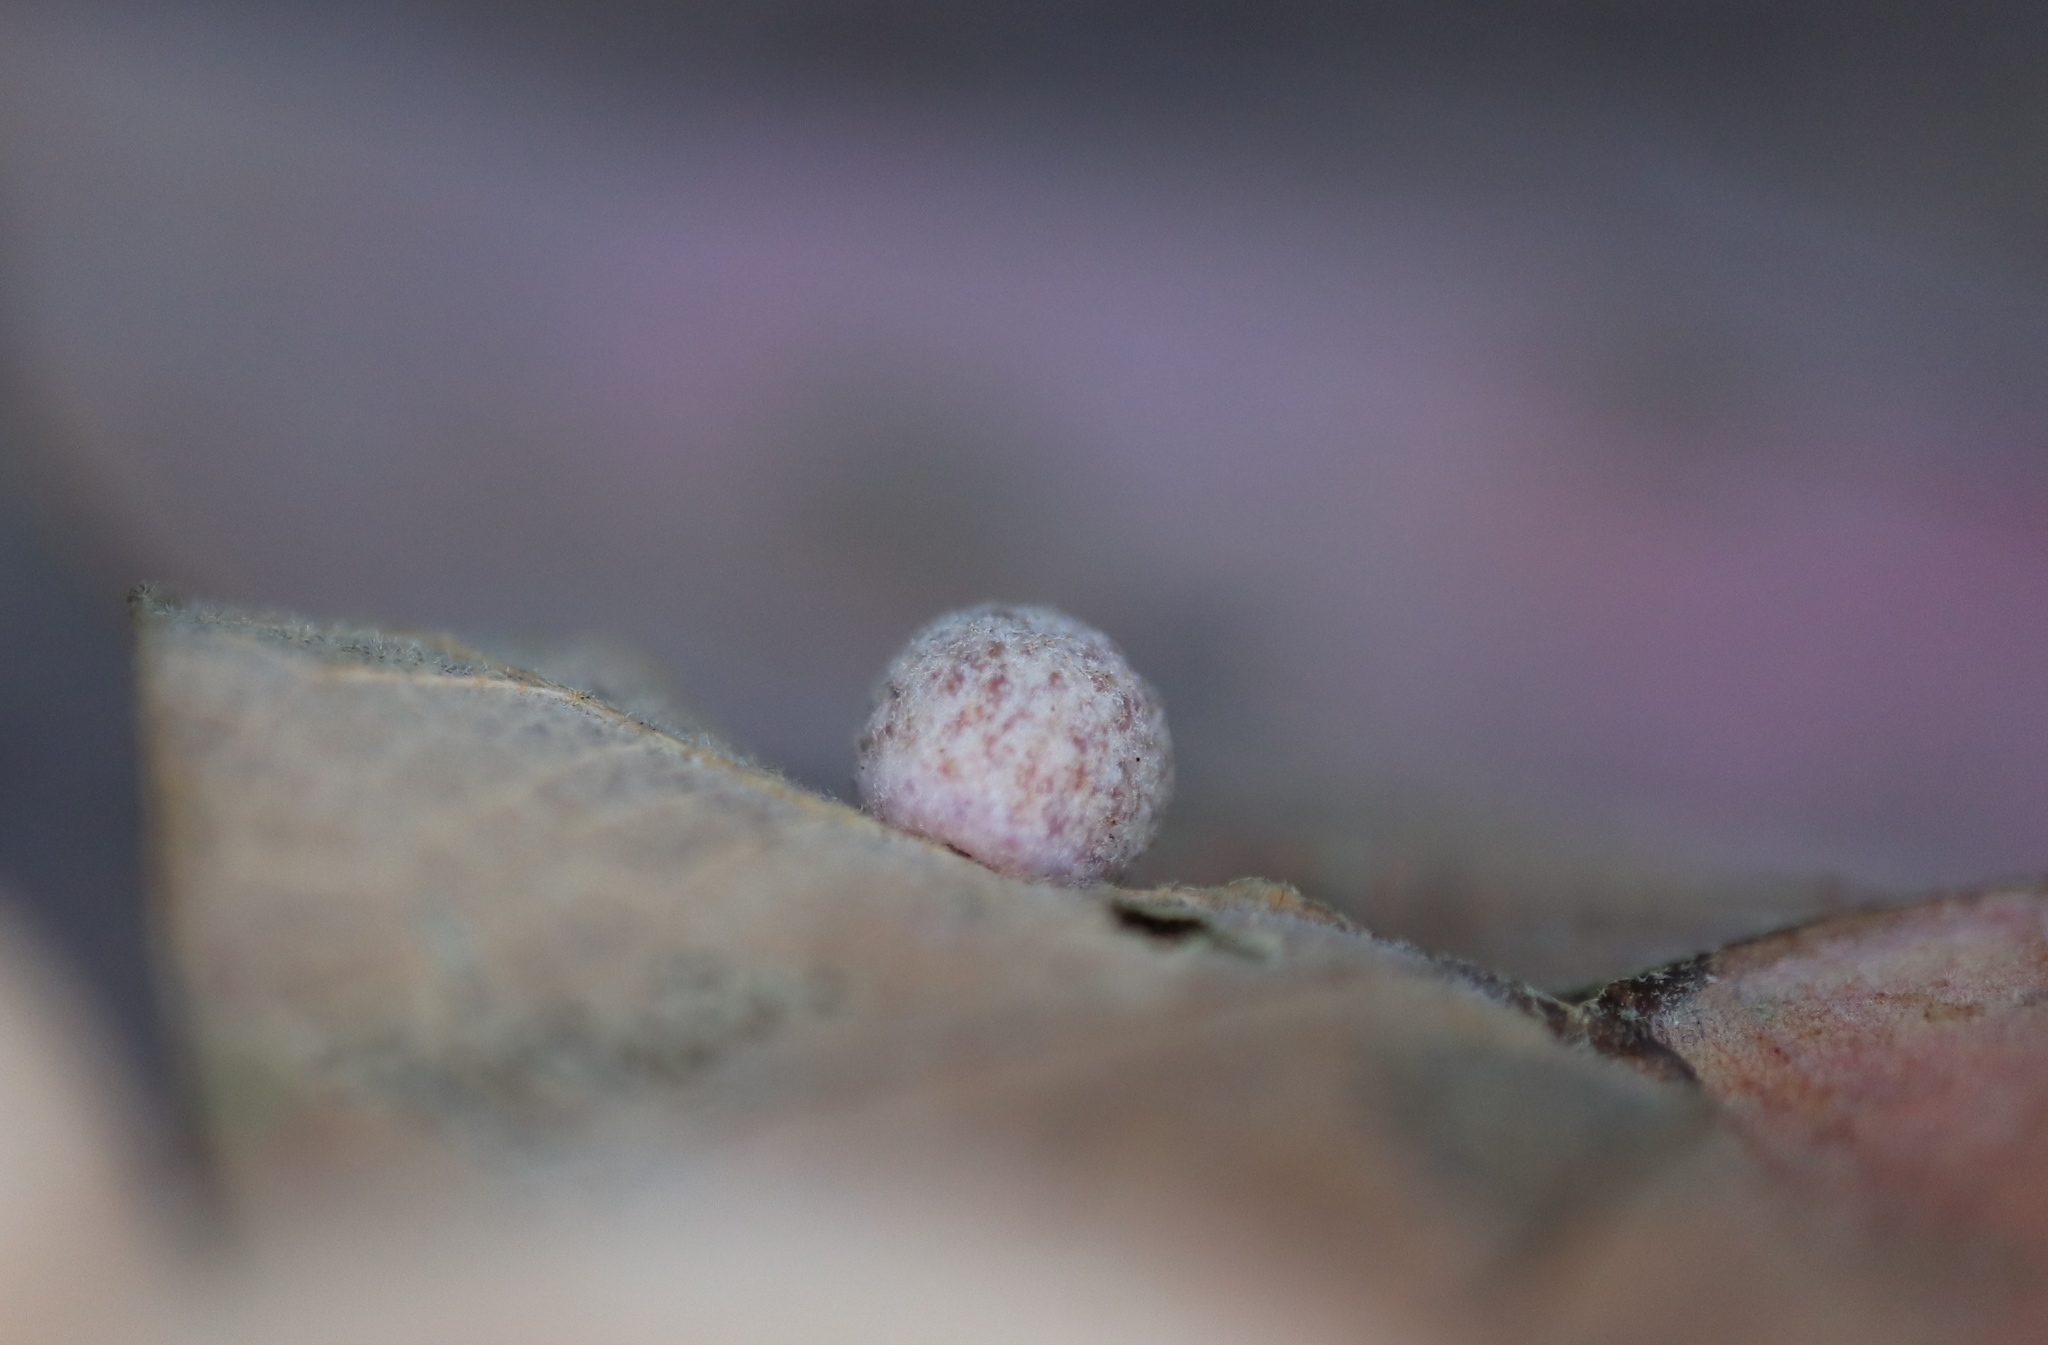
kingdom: Animalia
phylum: Arthropoda
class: Insecta
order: Hymenoptera
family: Cynipidae
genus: Atrusca
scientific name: Atrusca
